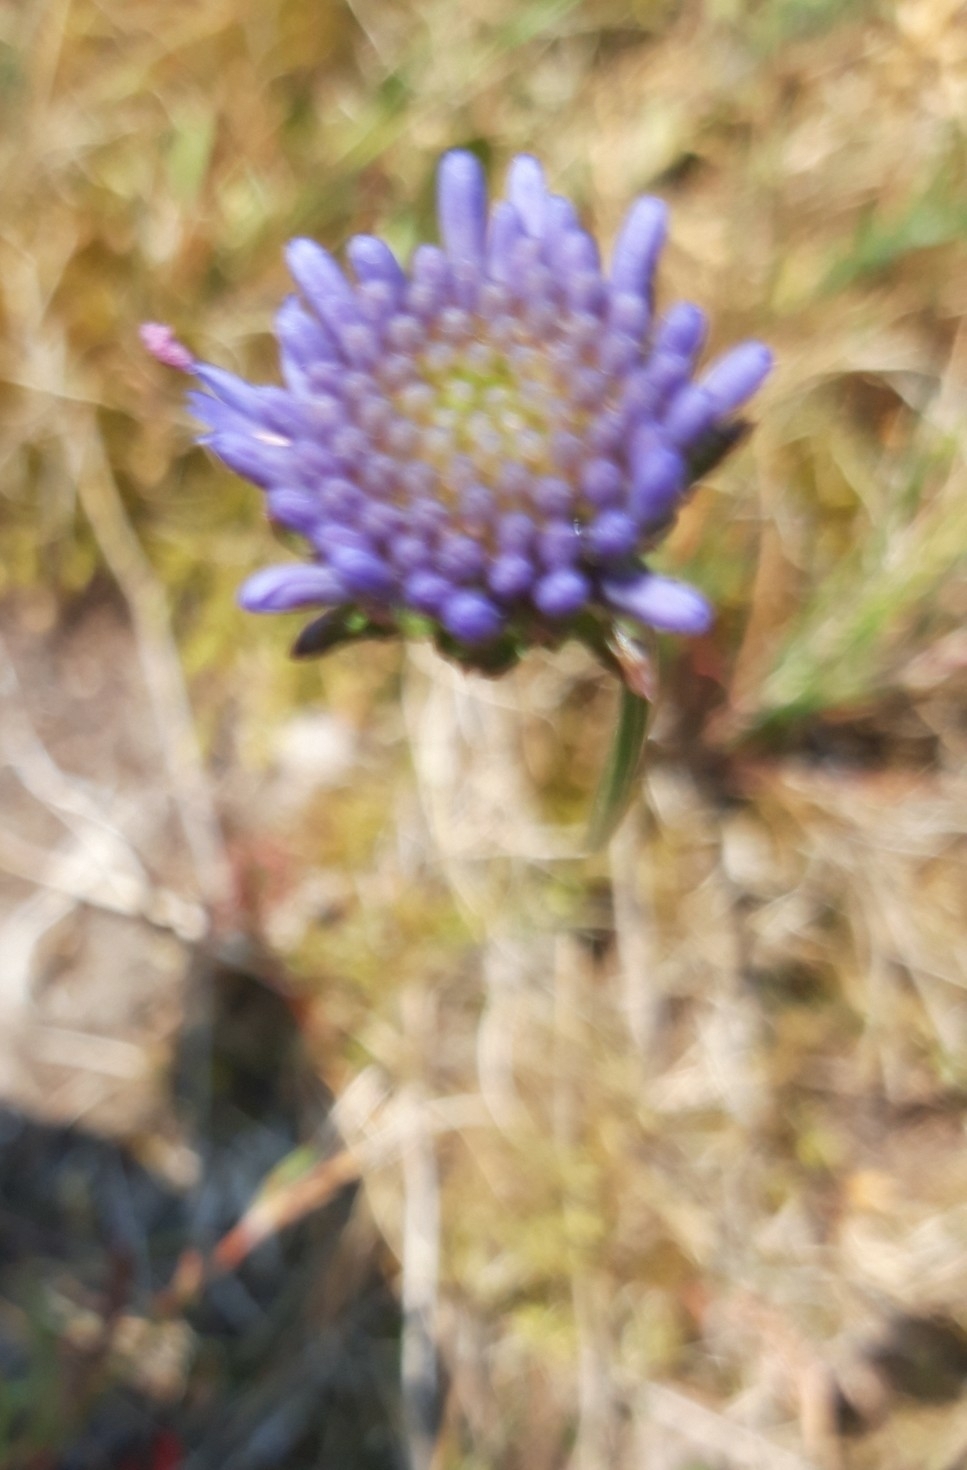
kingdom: Plantae
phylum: Tracheophyta
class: Magnoliopsida
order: Asterales
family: Campanulaceae
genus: Jasione
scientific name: Jasione montana
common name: Sheep's-bit
